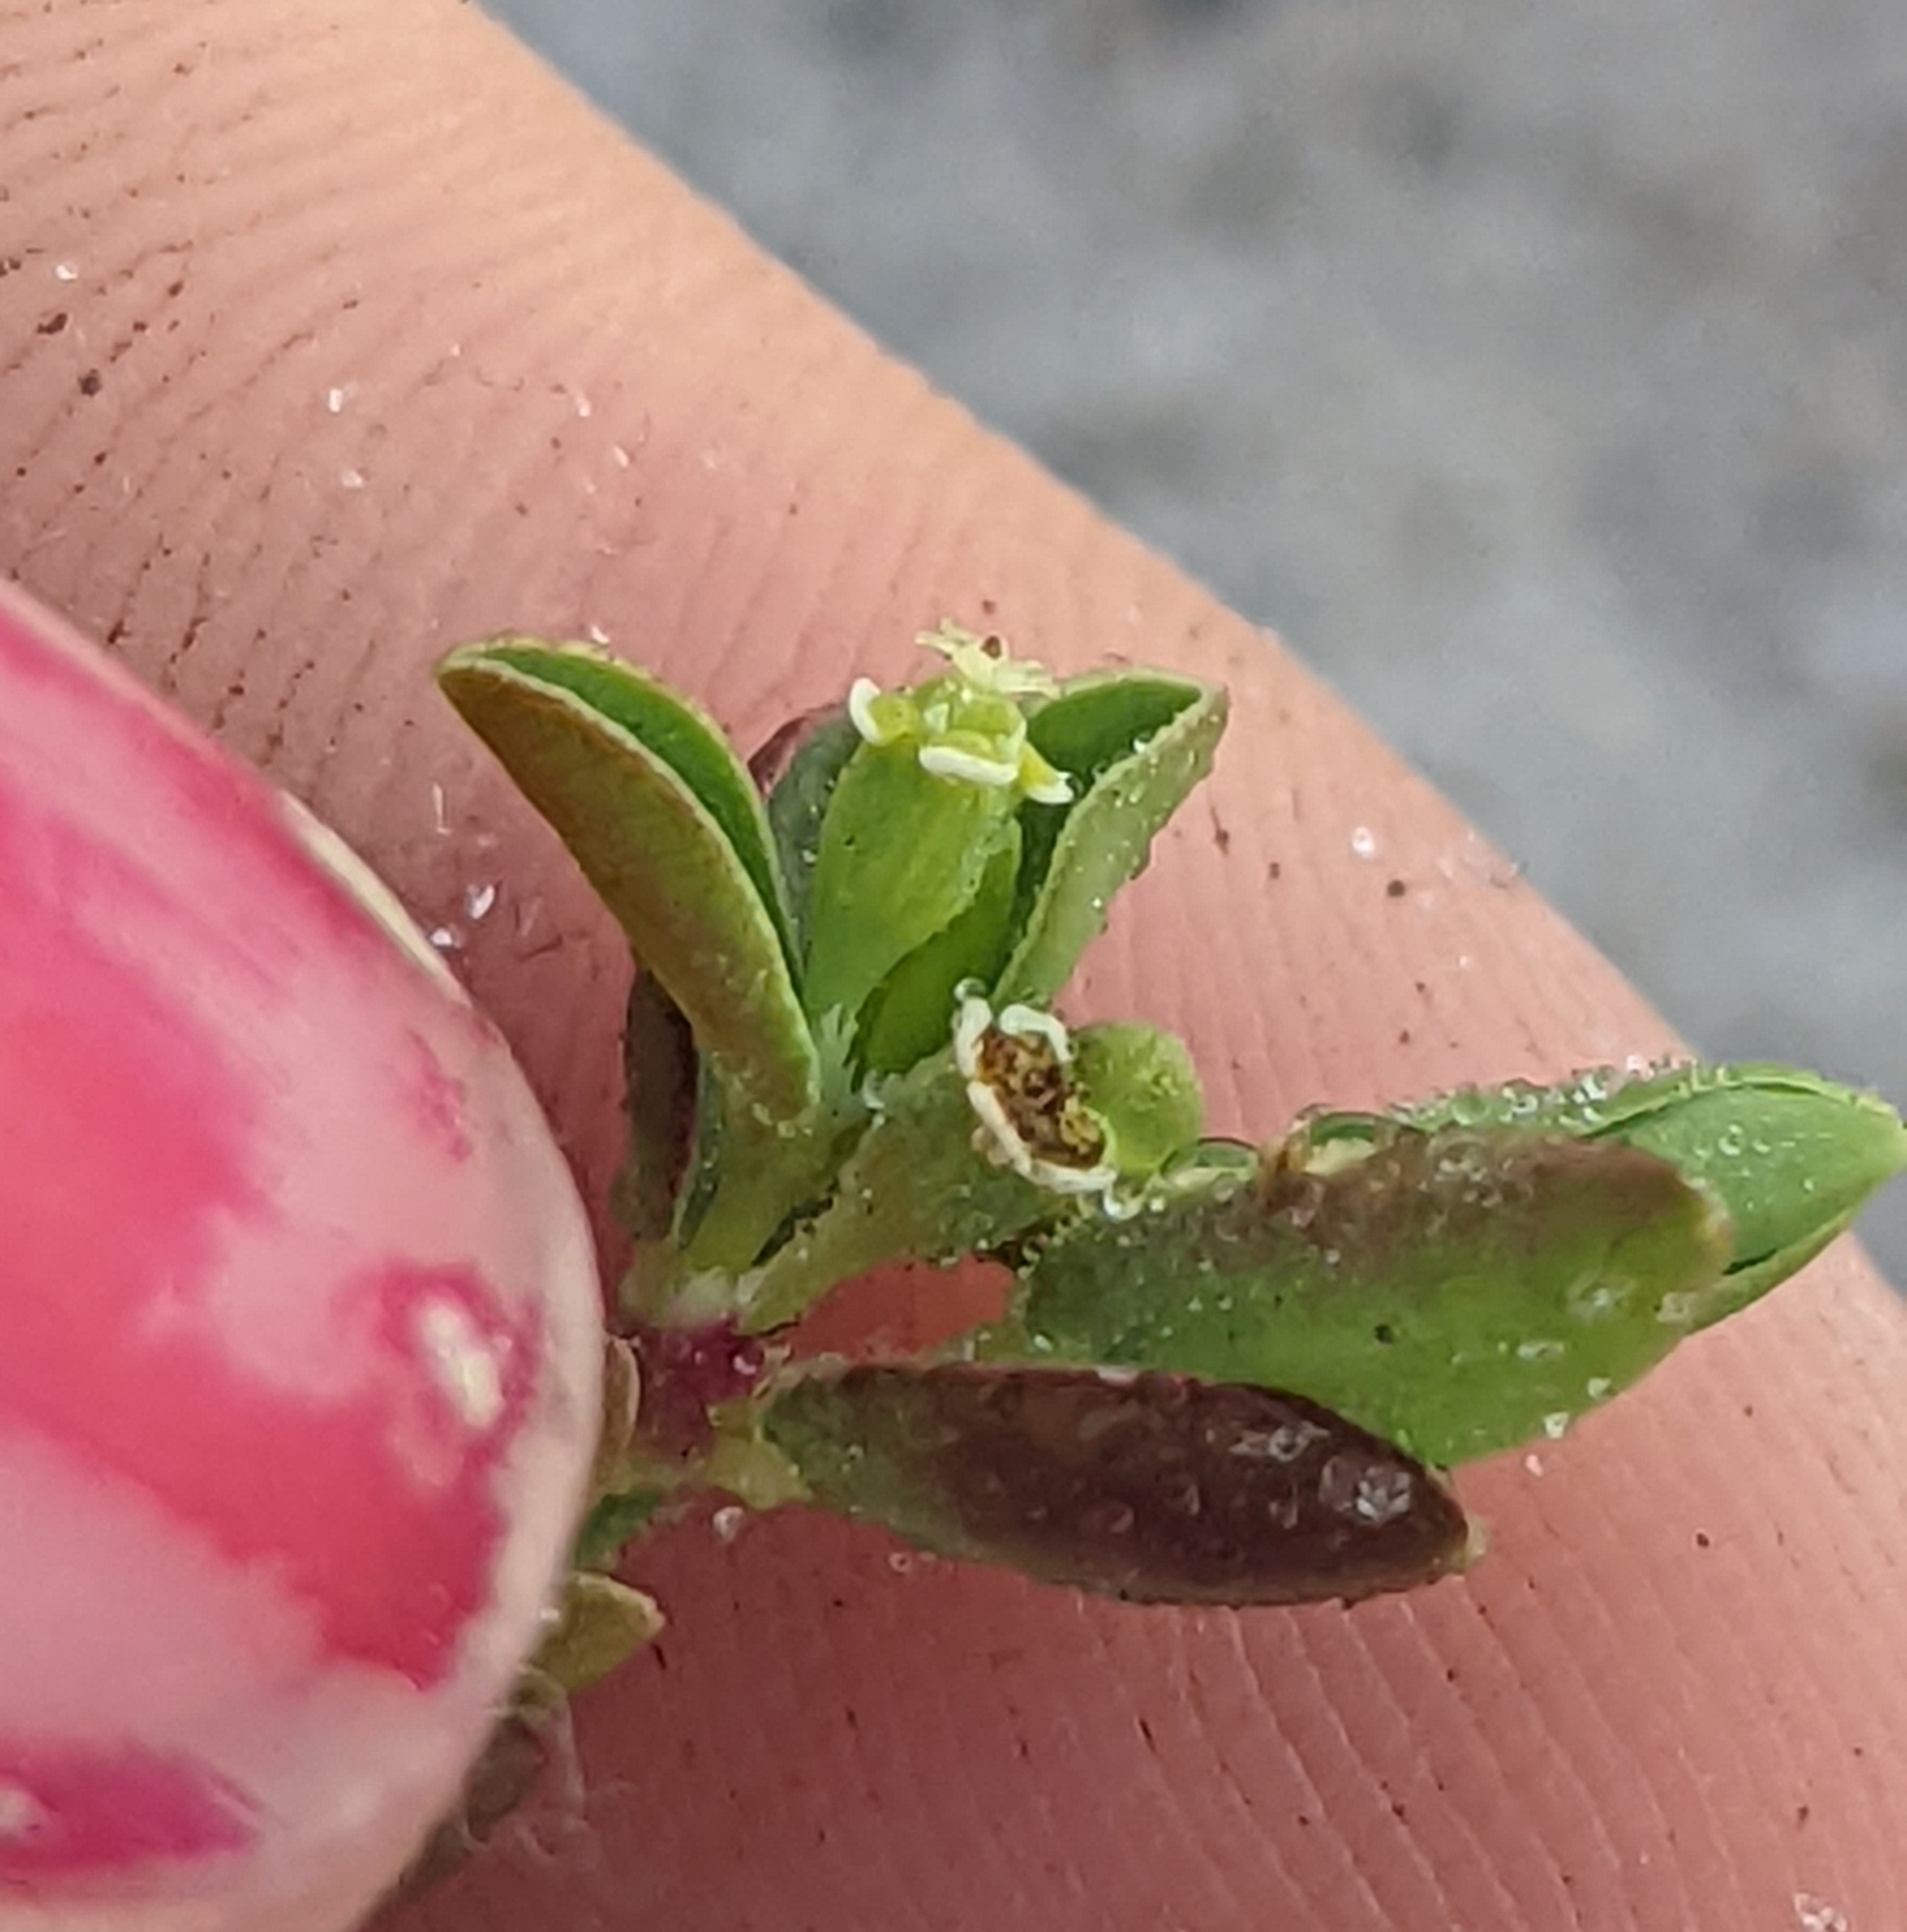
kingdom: Plantae
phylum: Tracheophyta
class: Magnoliopsida
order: Malpighiales
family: Euphorbiaceae
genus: Euphorbia
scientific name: Euphorbia mesembryanthemifolia
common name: Coastal beach sandmat
